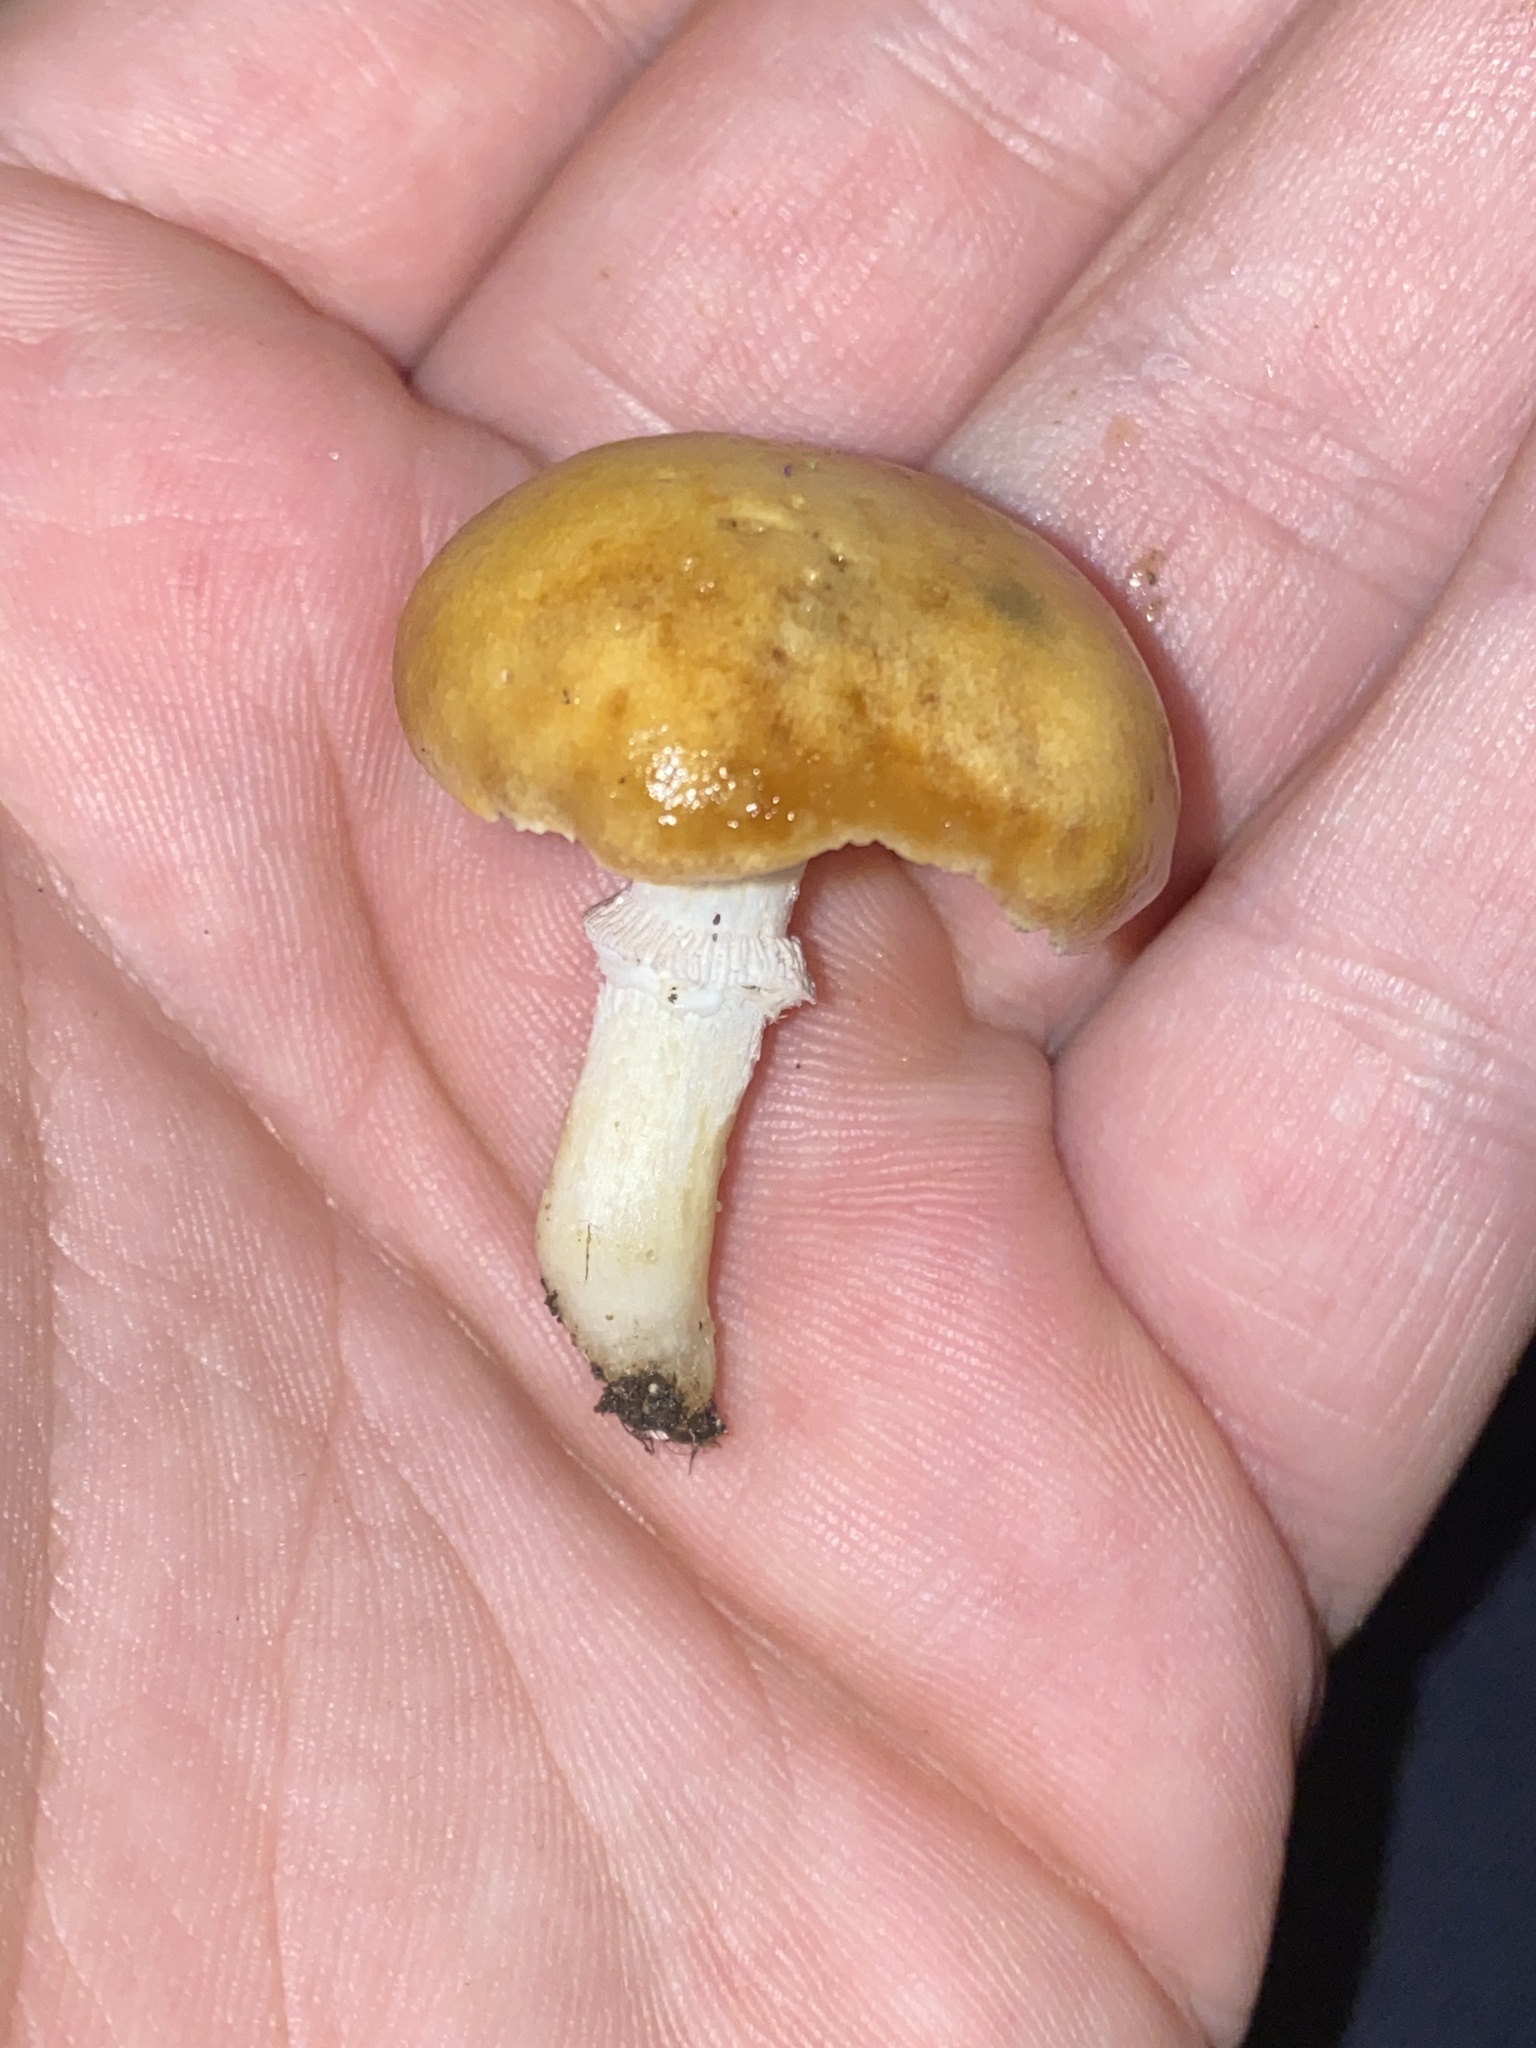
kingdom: Fungi
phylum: Basidiomycota
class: Agaricomycetes
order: Agaricales
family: Hymenogastraceae
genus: Psilocybe
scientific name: Psilocybe coronilla
